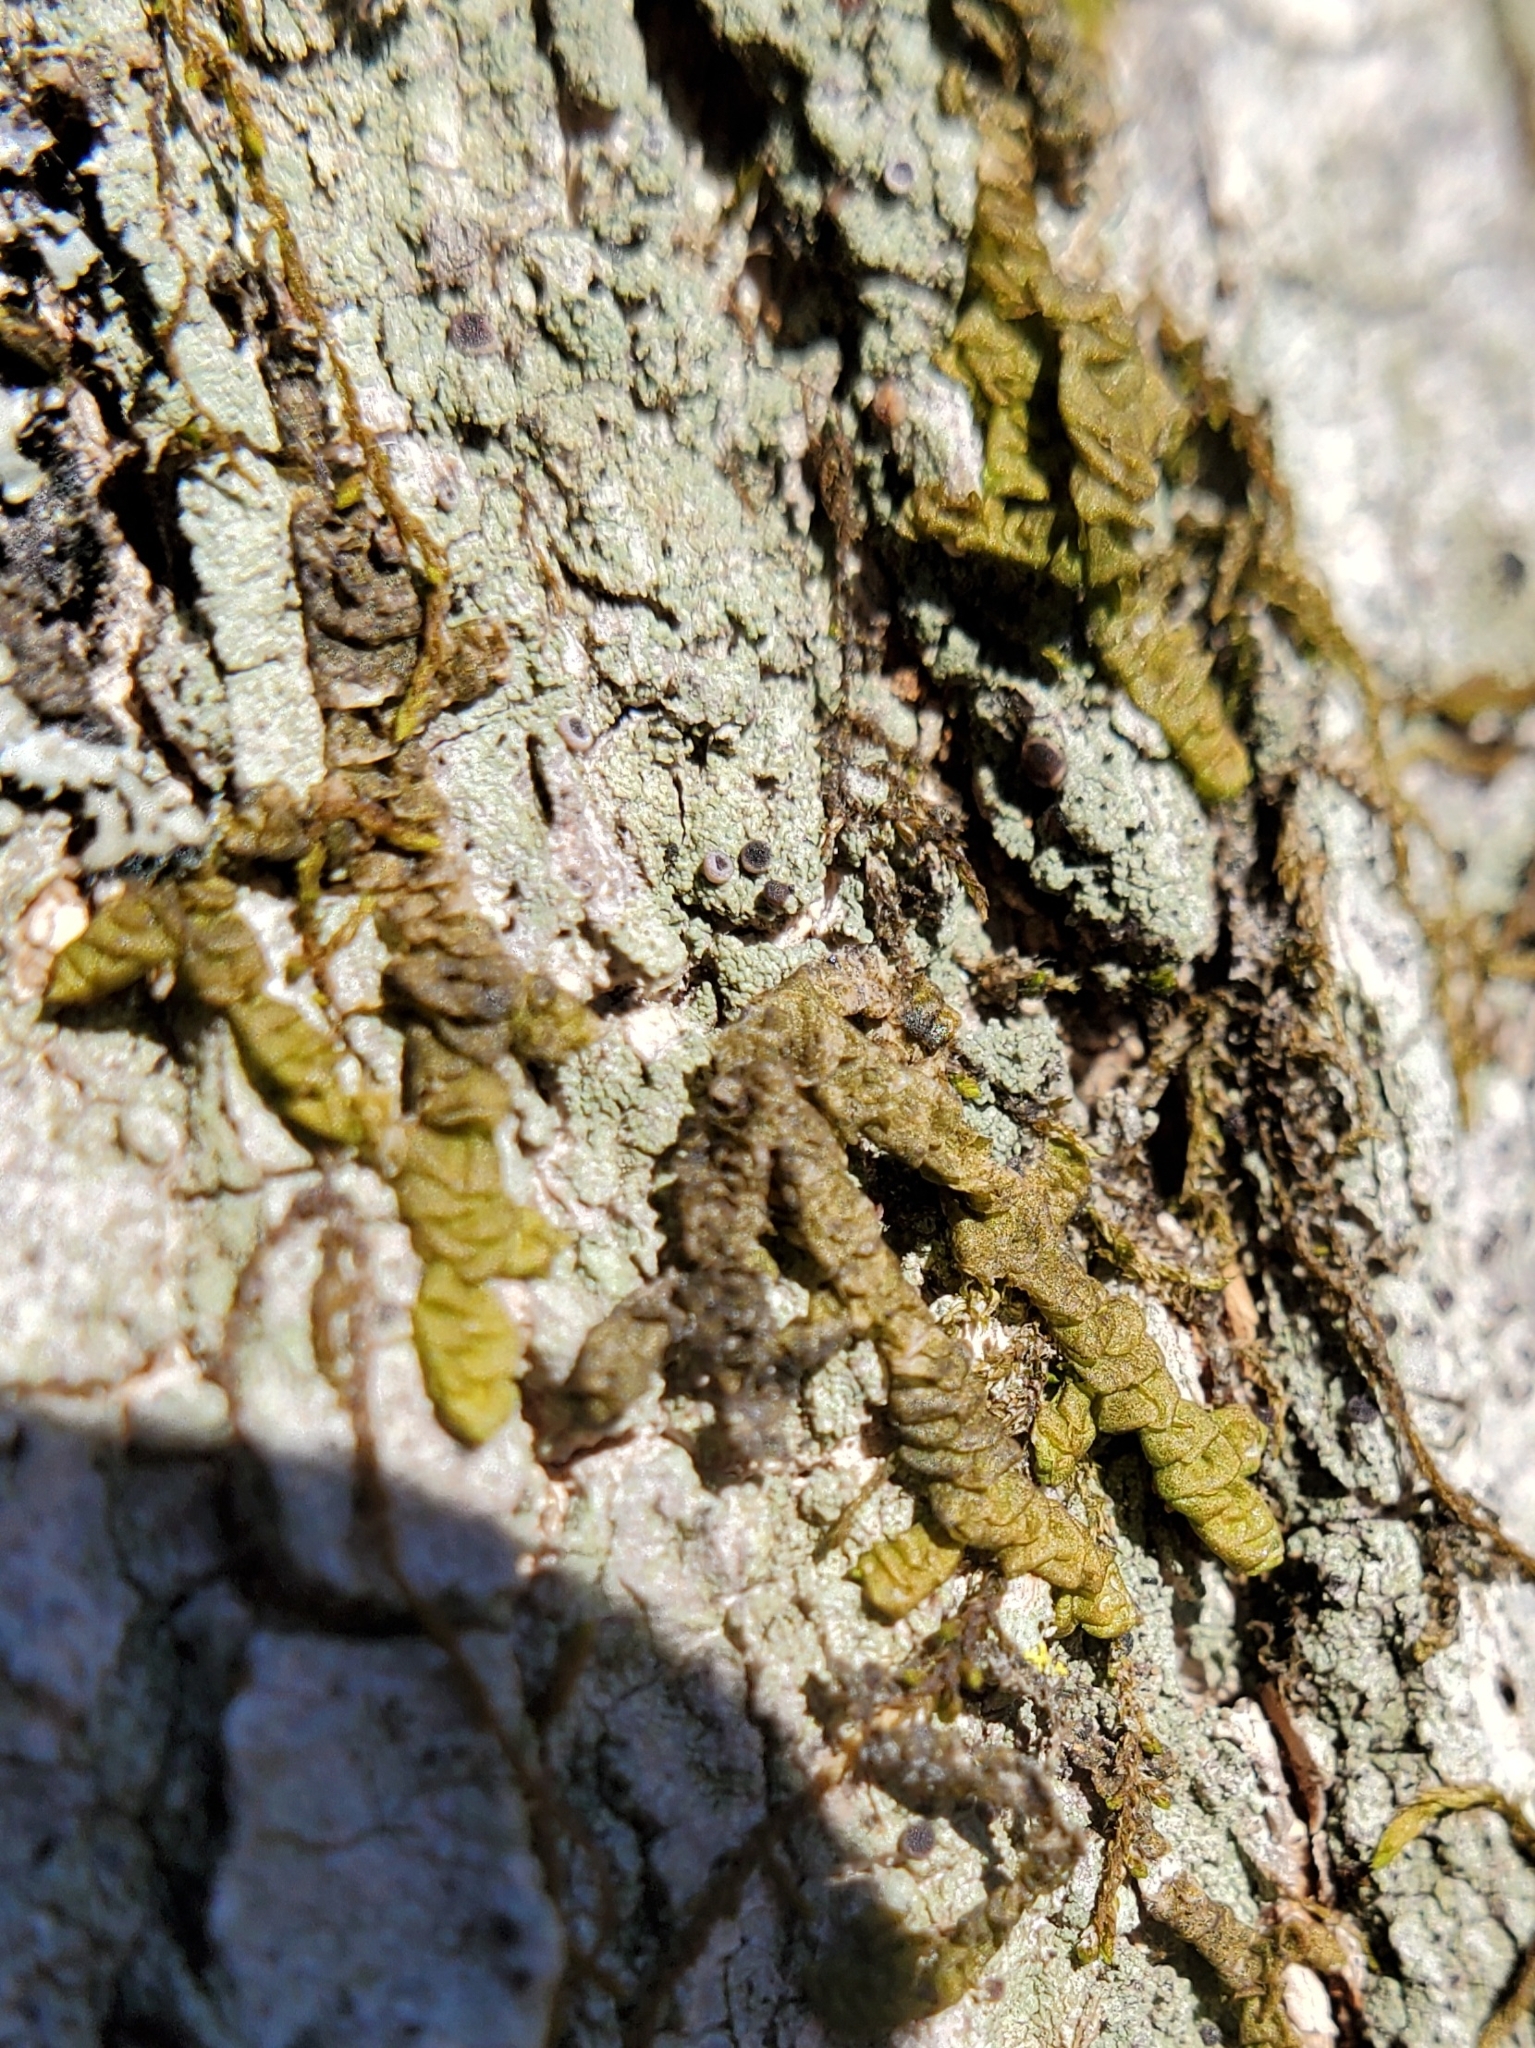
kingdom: Plantae
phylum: Marchantiophyta
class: Jungermanniopsida
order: Porellales
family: Porellaceae
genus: Porella
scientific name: Porella platyphylla
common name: Wall scalewort
